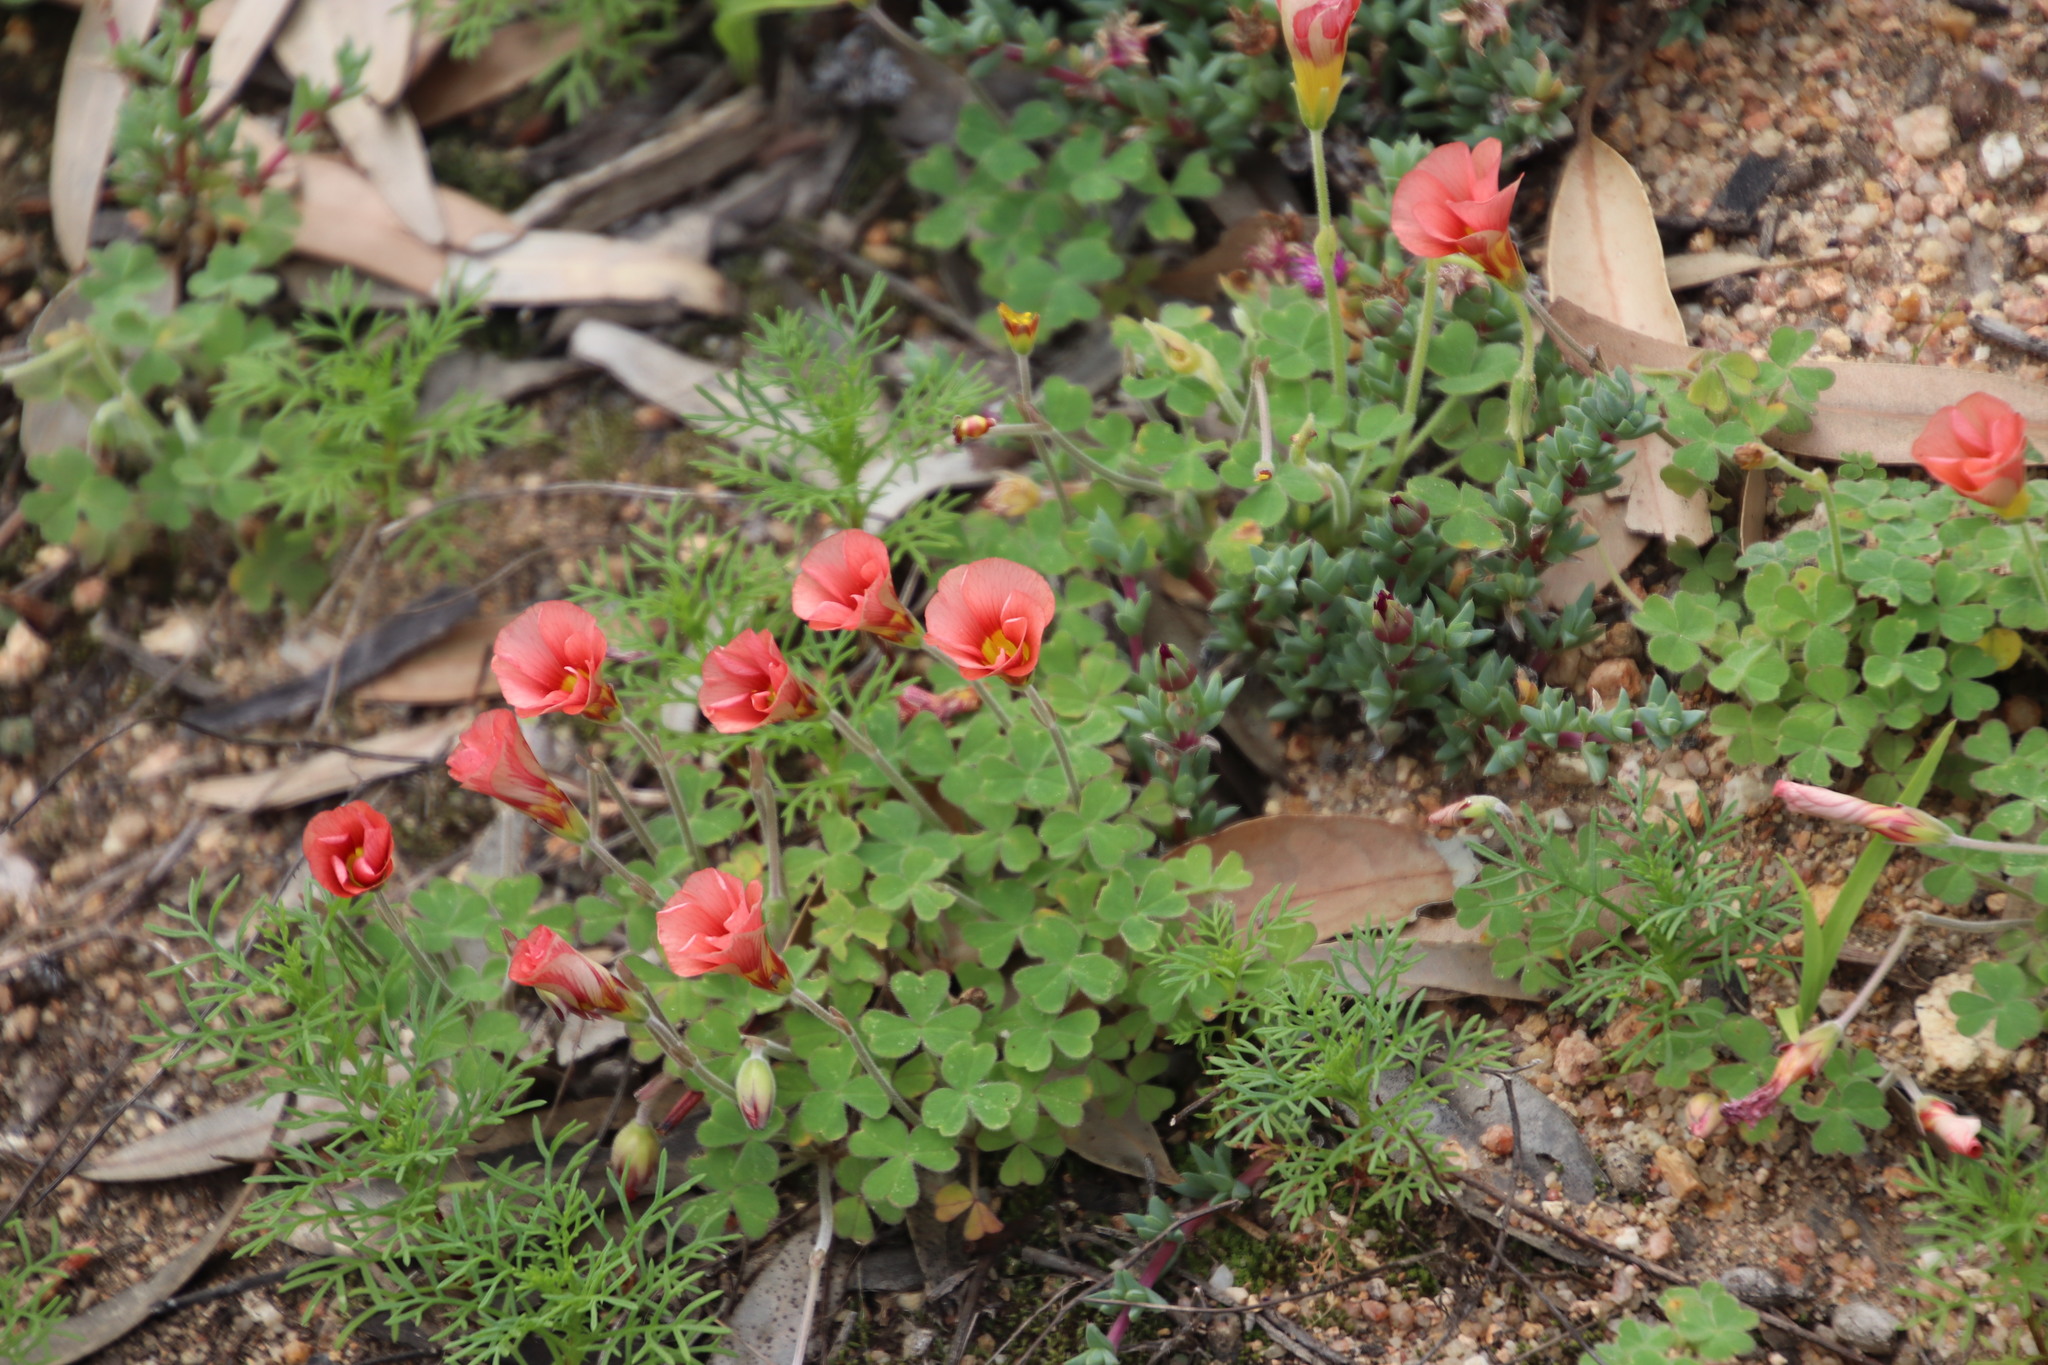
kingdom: Plantae
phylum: Tracheophyta
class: Magnoliopsida
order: Oxalidales
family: Oxalidaceae
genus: Oxalis
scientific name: Oxalis obtusa
